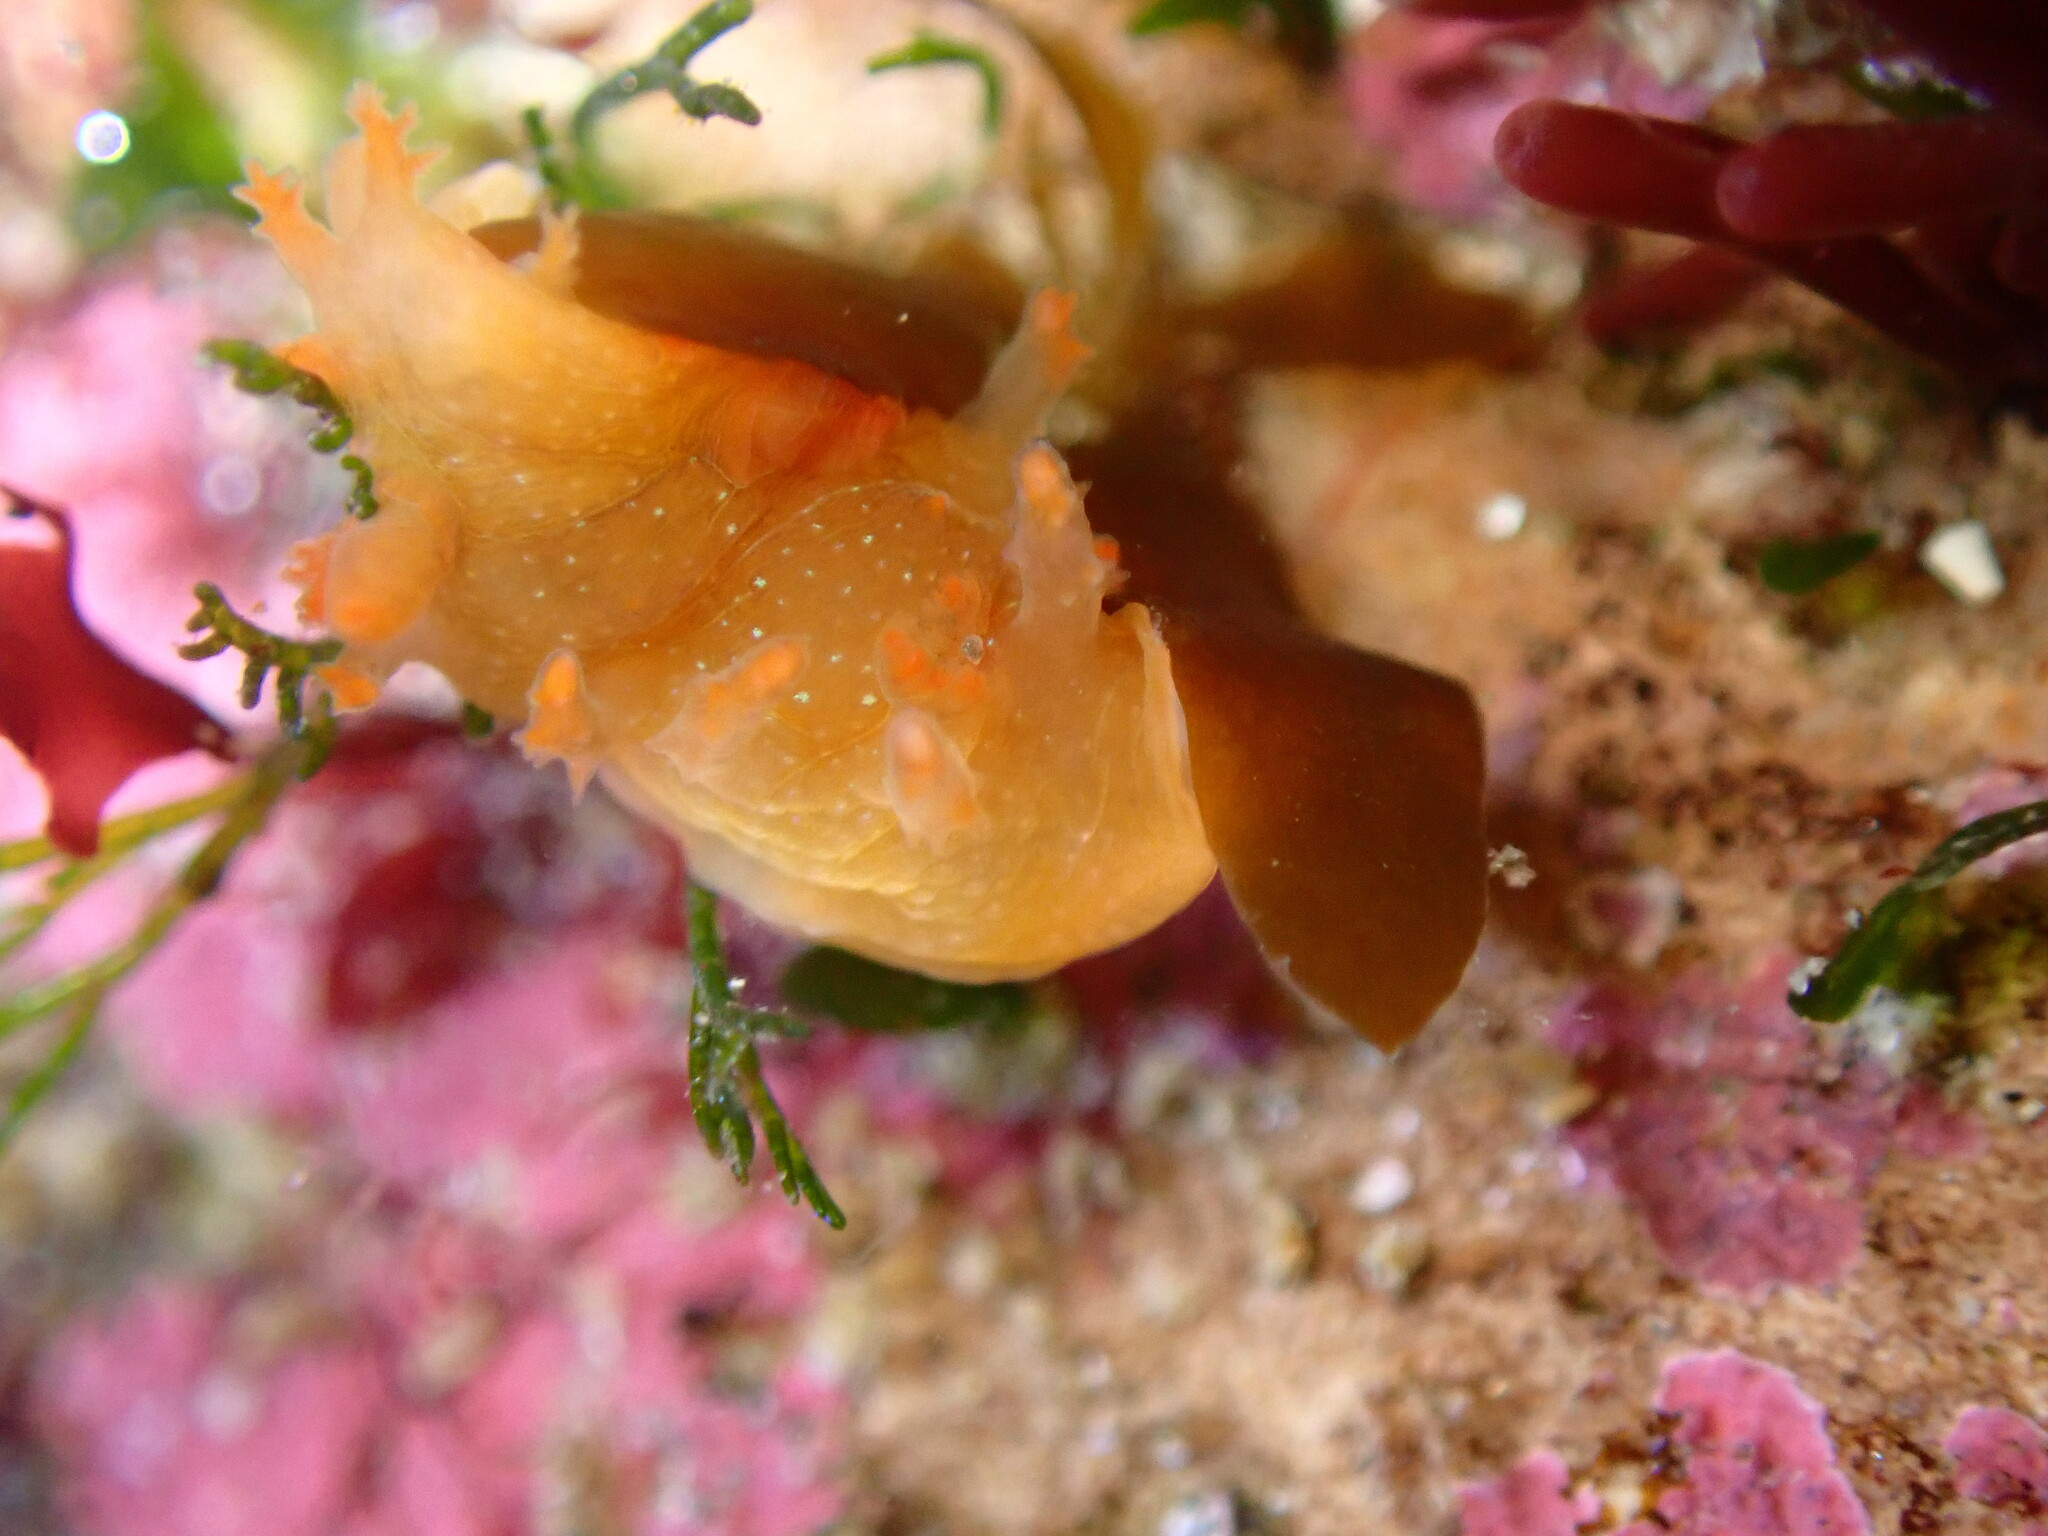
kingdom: Animalia
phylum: Mollusca
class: Gastropoda
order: Nudibranchia
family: Polyceridae
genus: Triopha
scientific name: Triopha maculata
